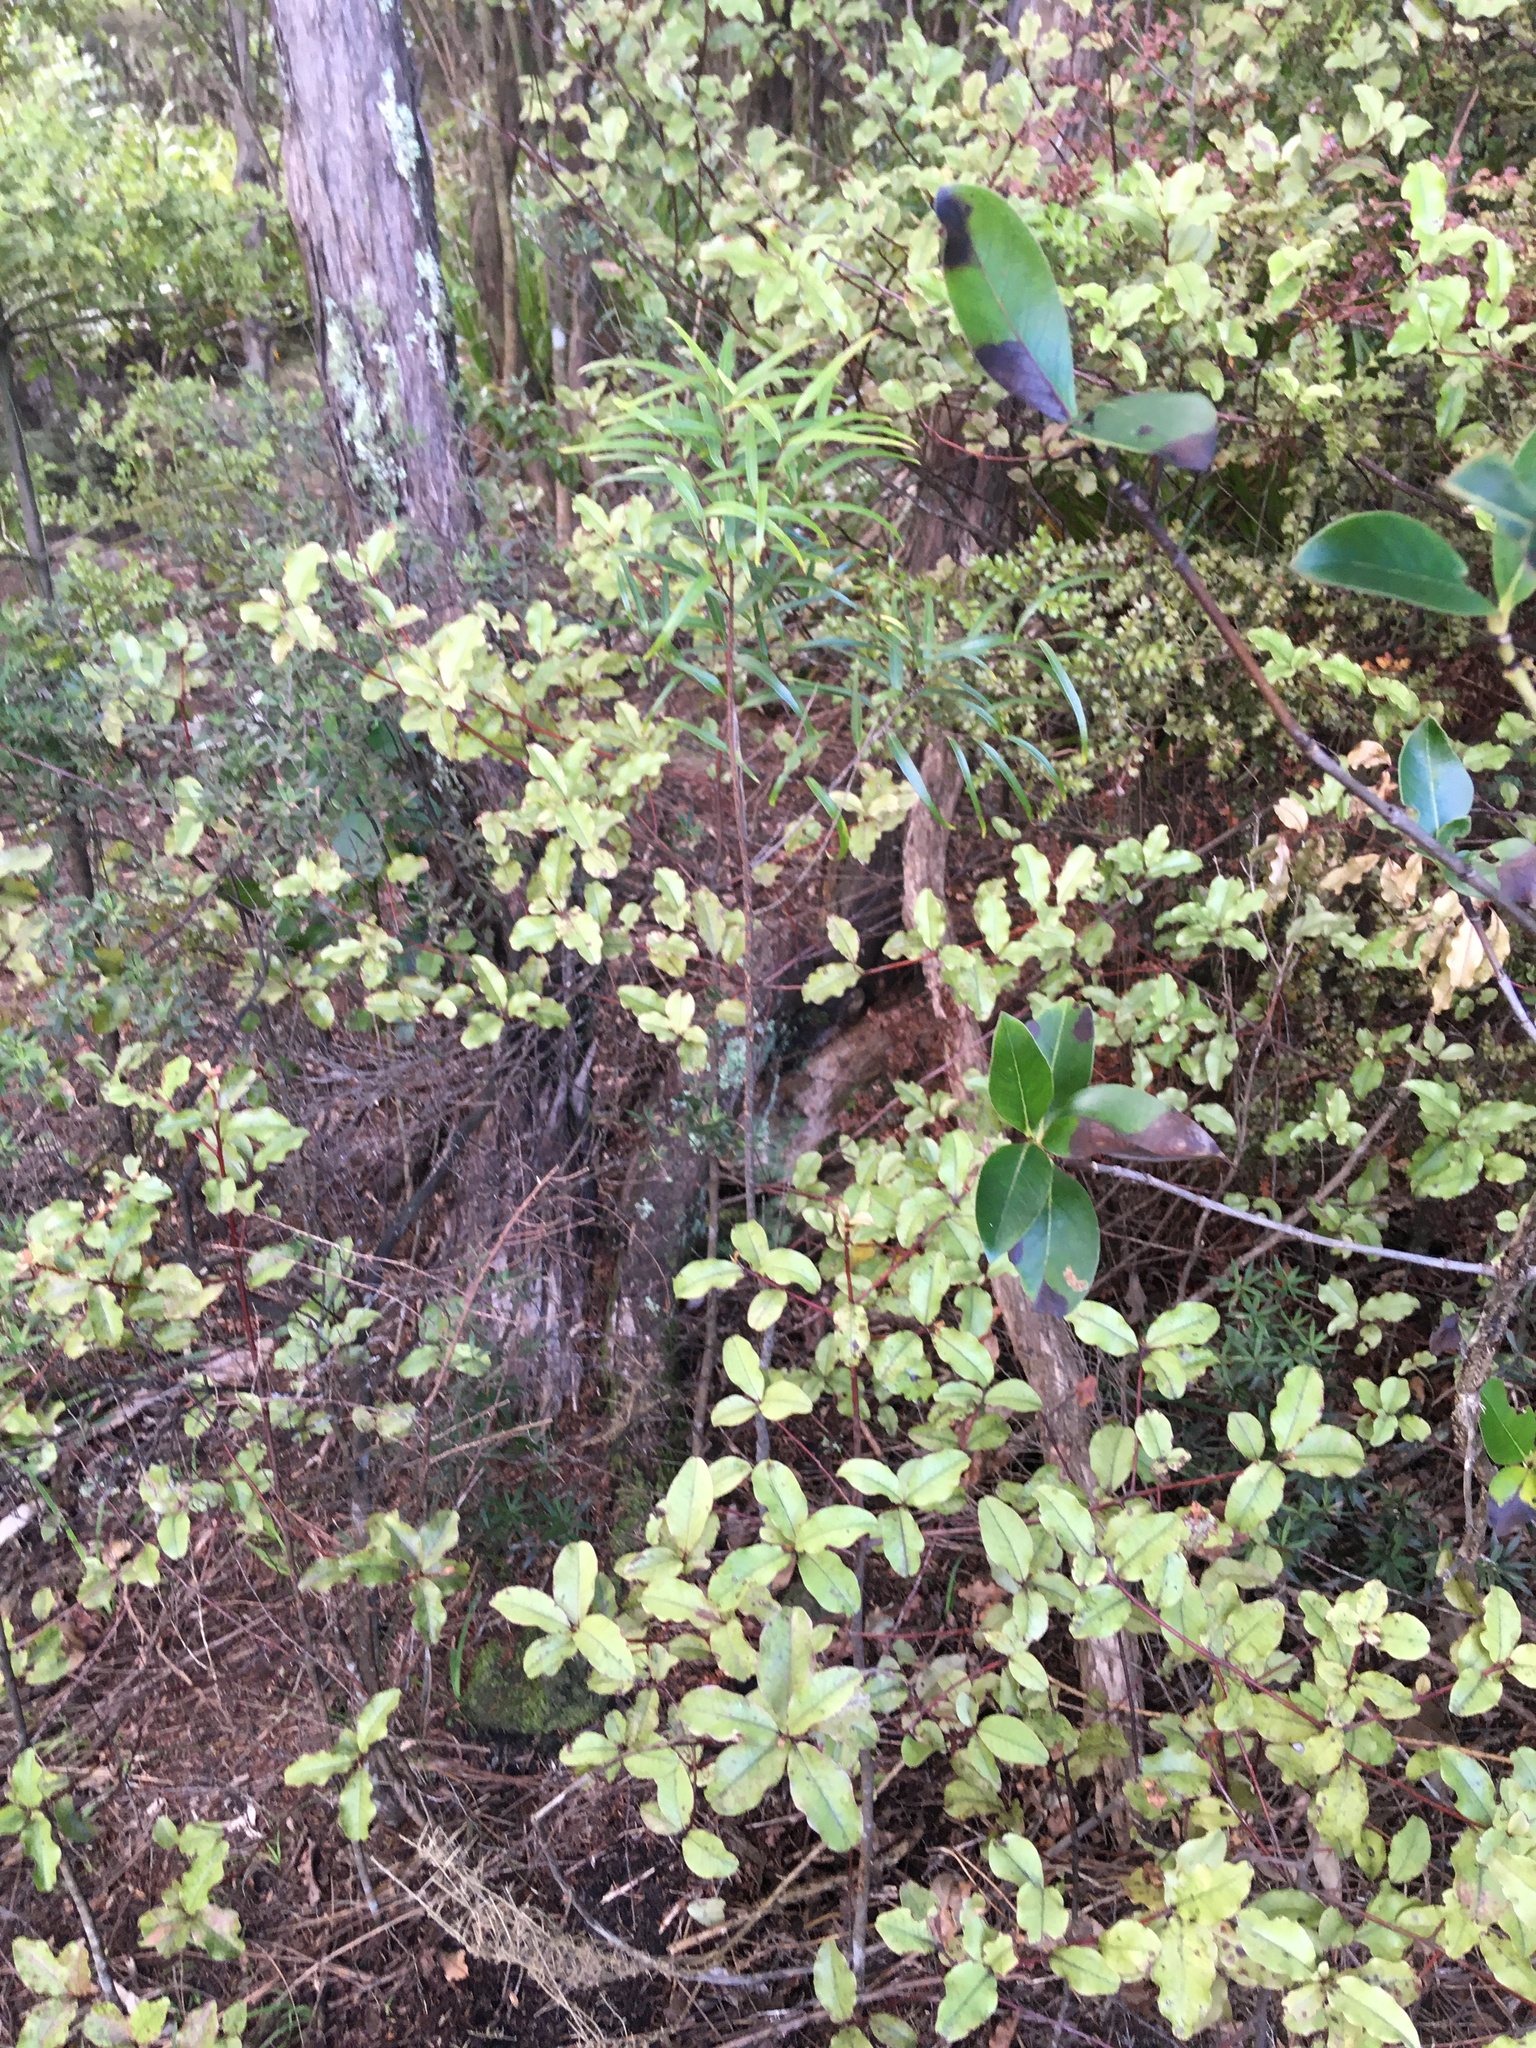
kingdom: Plantae
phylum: Tracheophyta
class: Magnoliopsida
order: Lamiales
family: Oleaceae
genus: Nestegis
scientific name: Nestegis lanceolata
